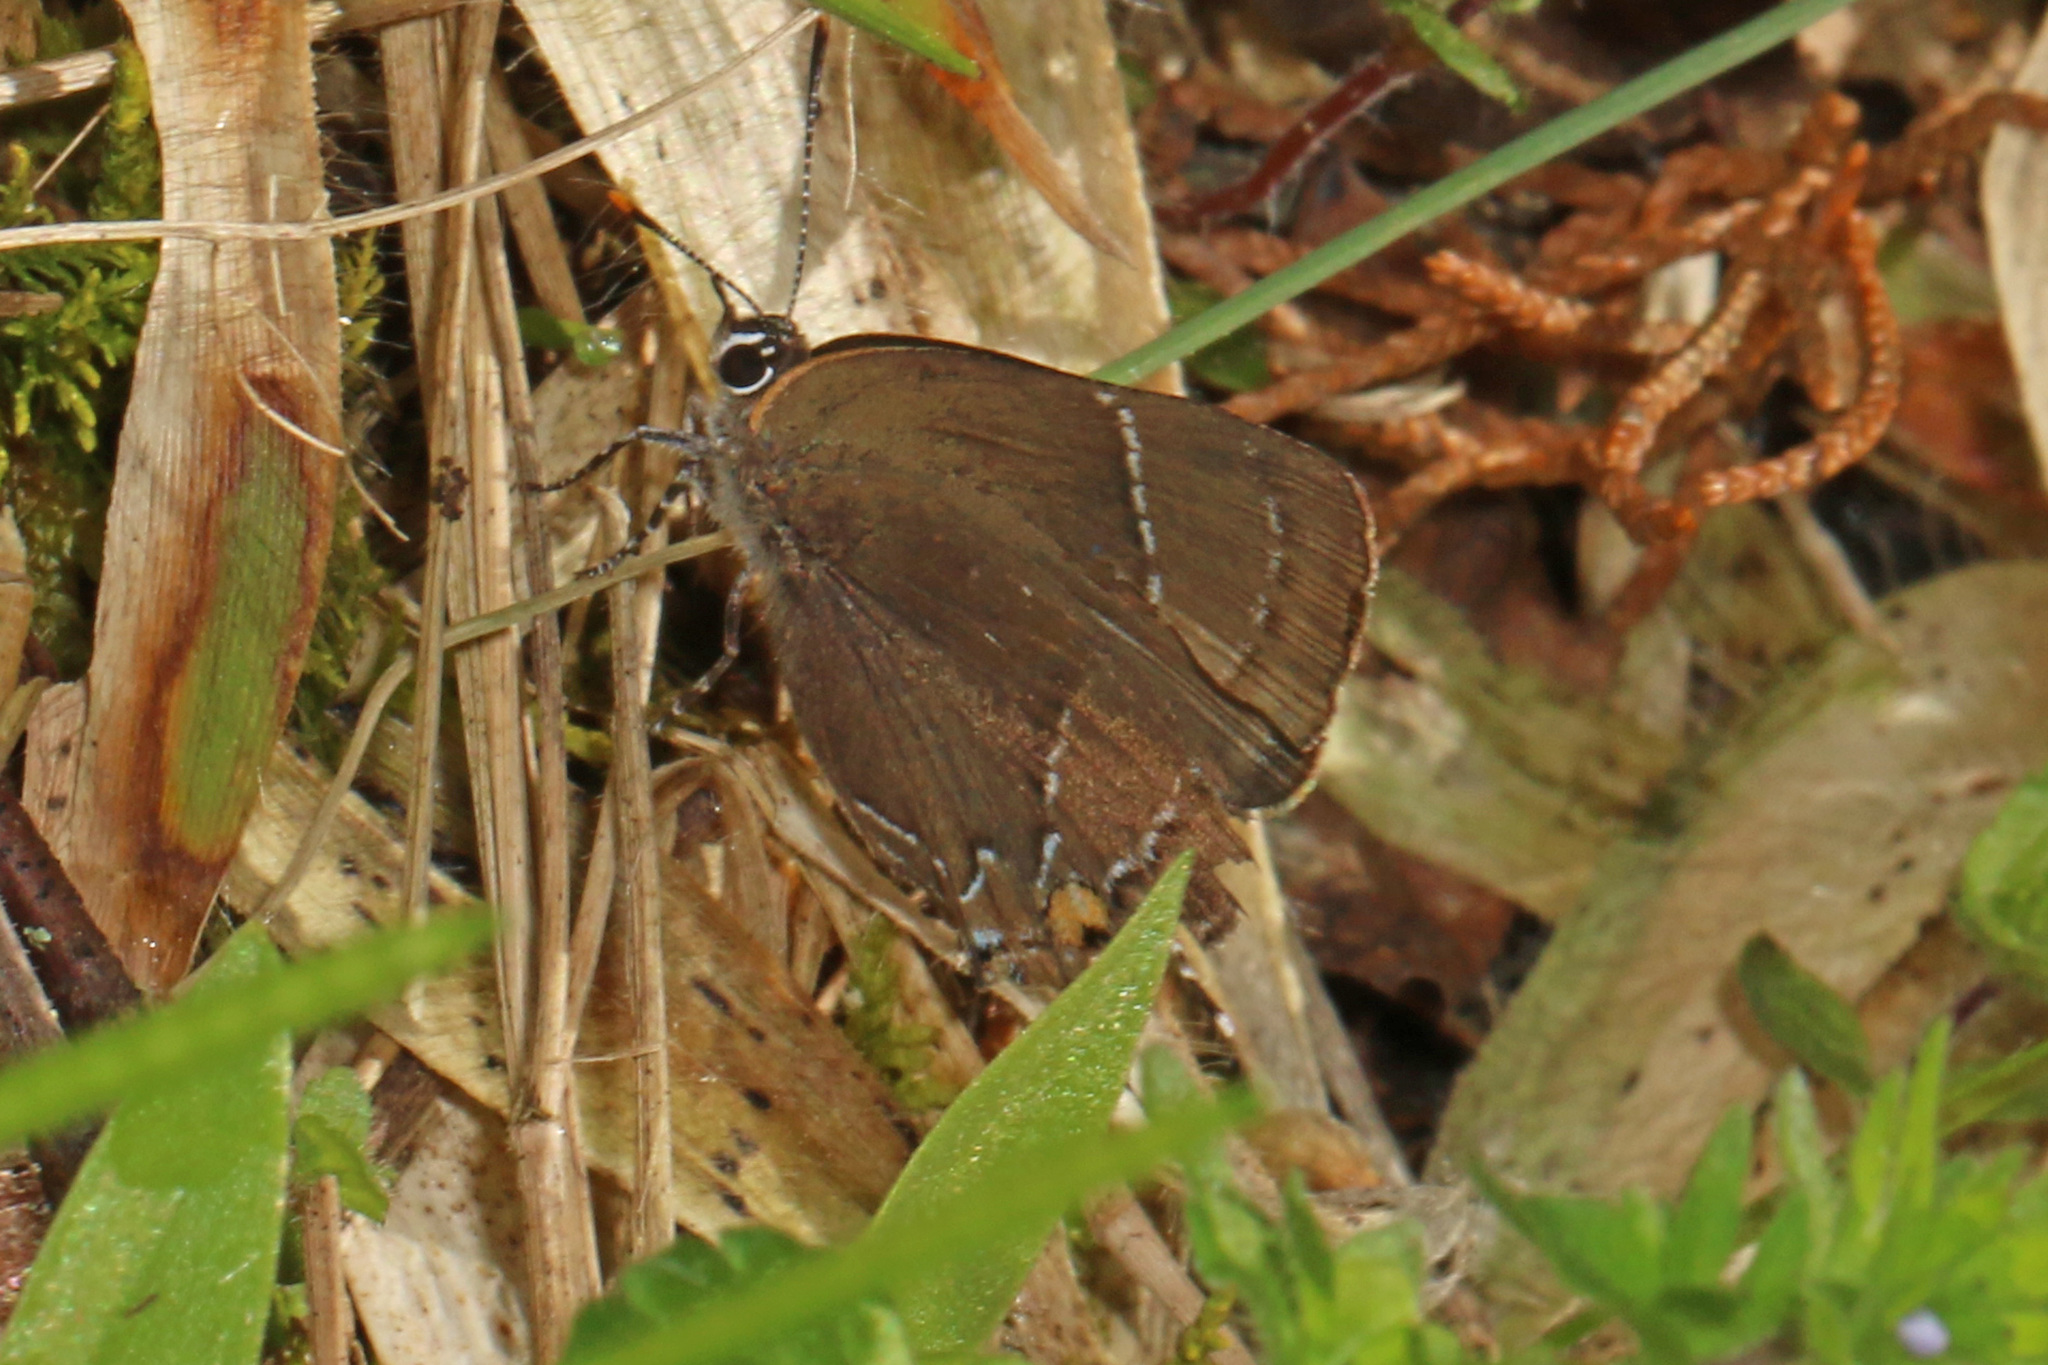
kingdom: Animalia
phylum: Arthropoda
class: Insecta
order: Lepidoptera
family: Lycaenidae
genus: Parrhasius
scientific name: Parrhasius m-album
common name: White m hairstreak
